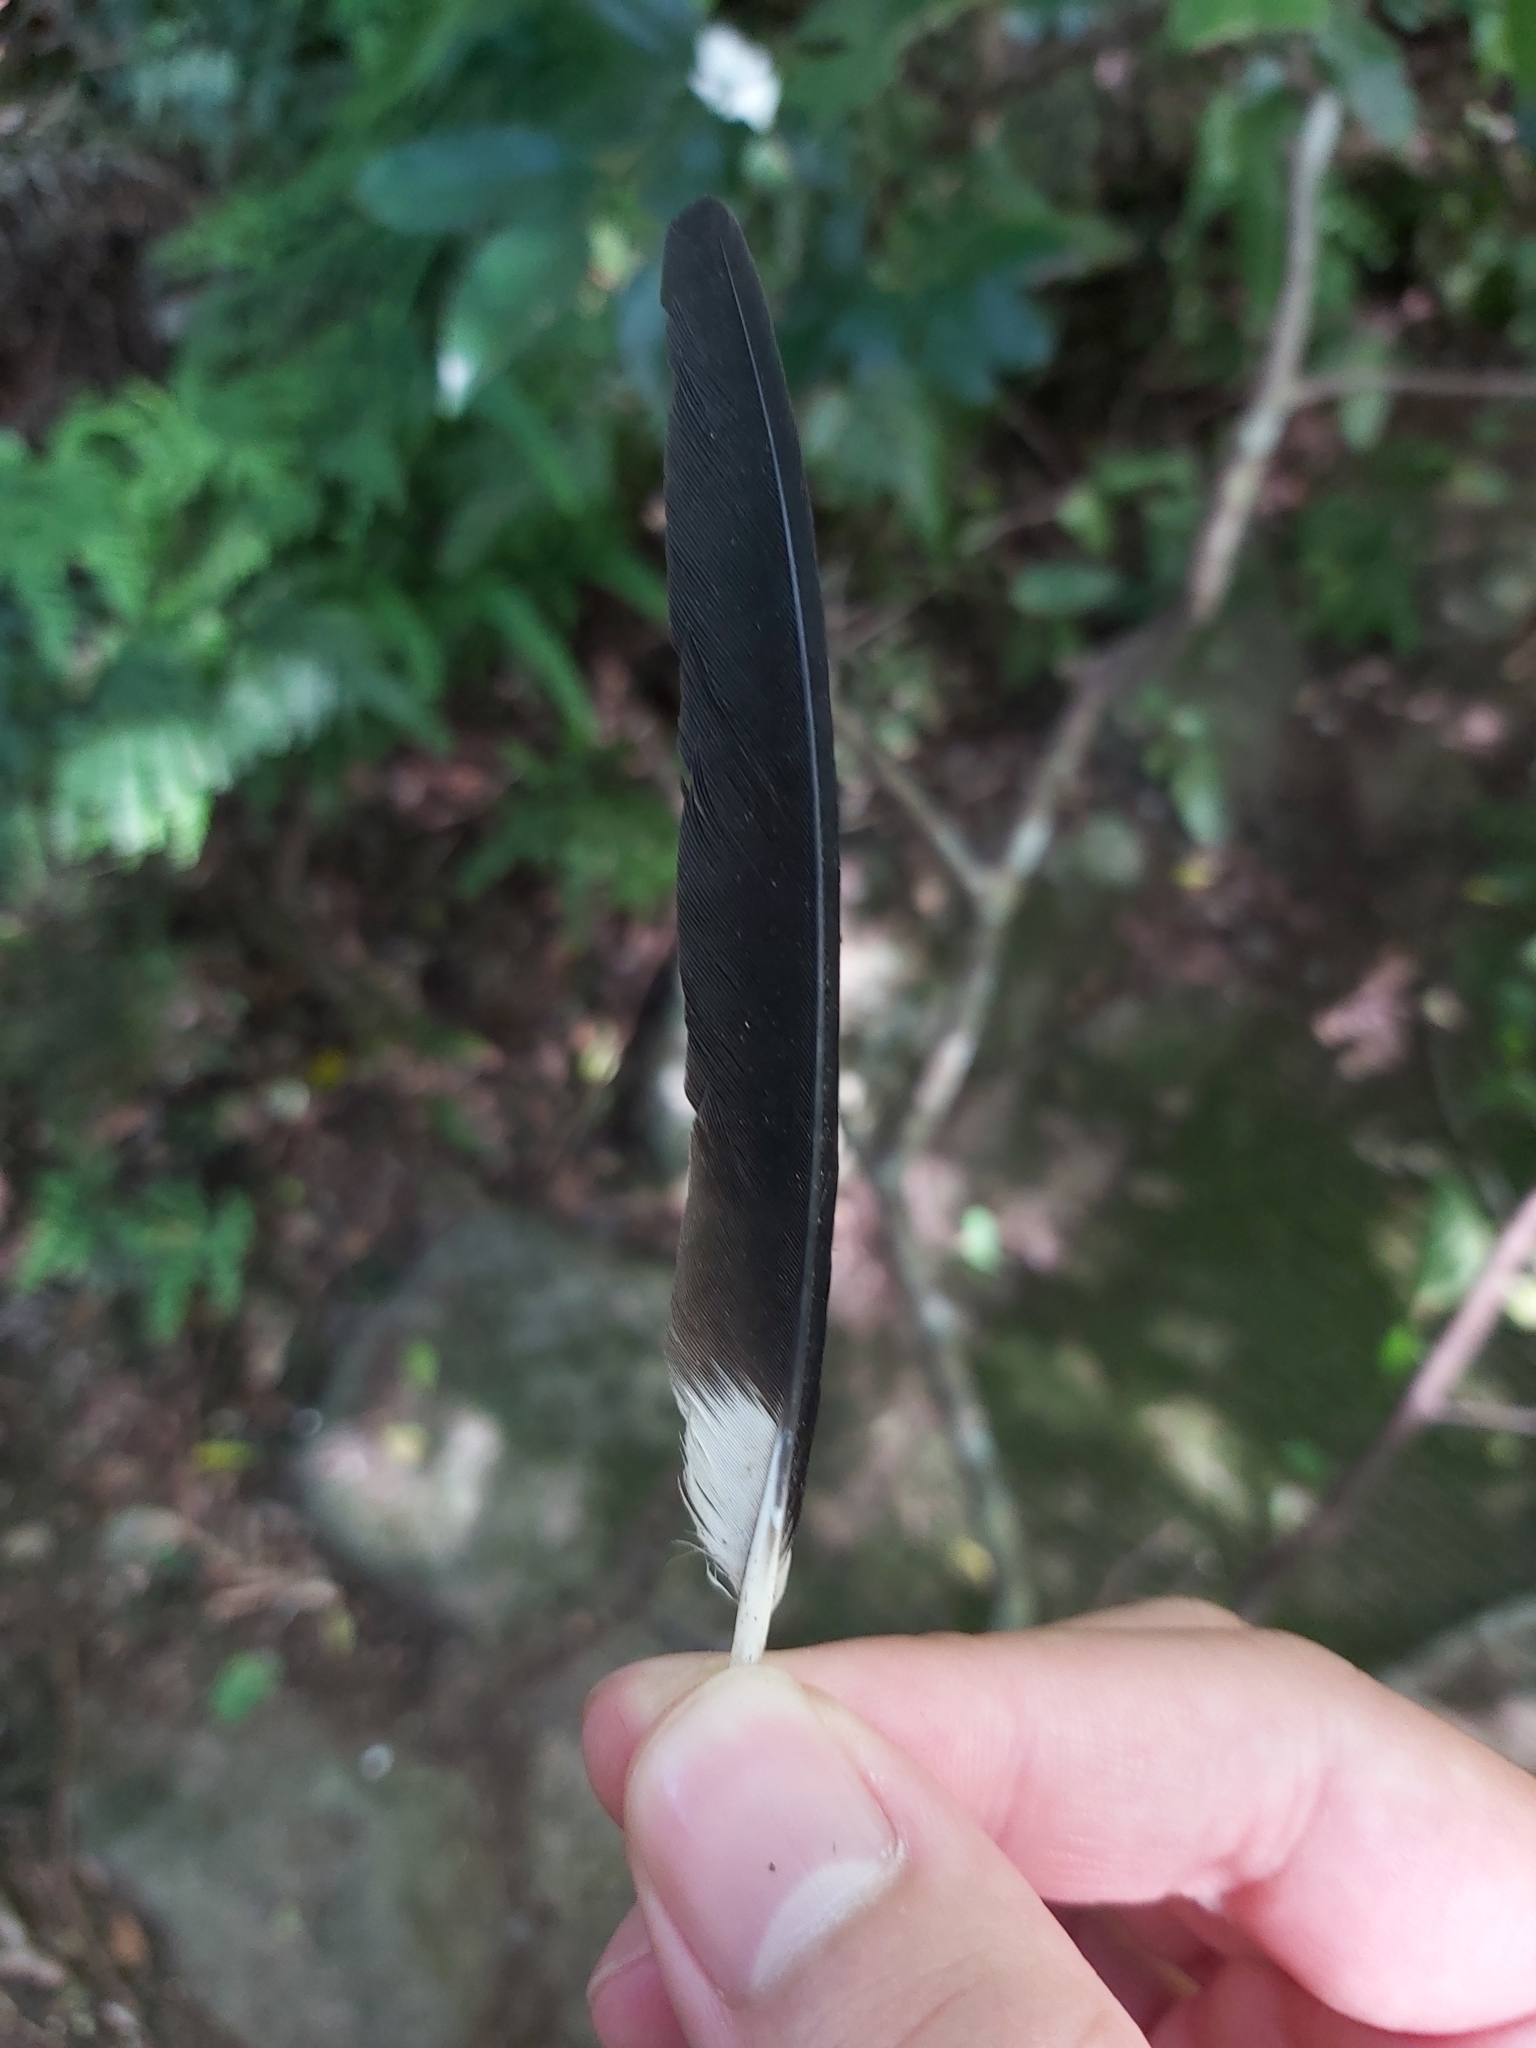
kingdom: Animalia
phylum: Chordata
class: Aves
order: Passeriformes
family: Cracticidae
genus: Strepera
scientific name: Strepera graculina
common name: Pied currawong
